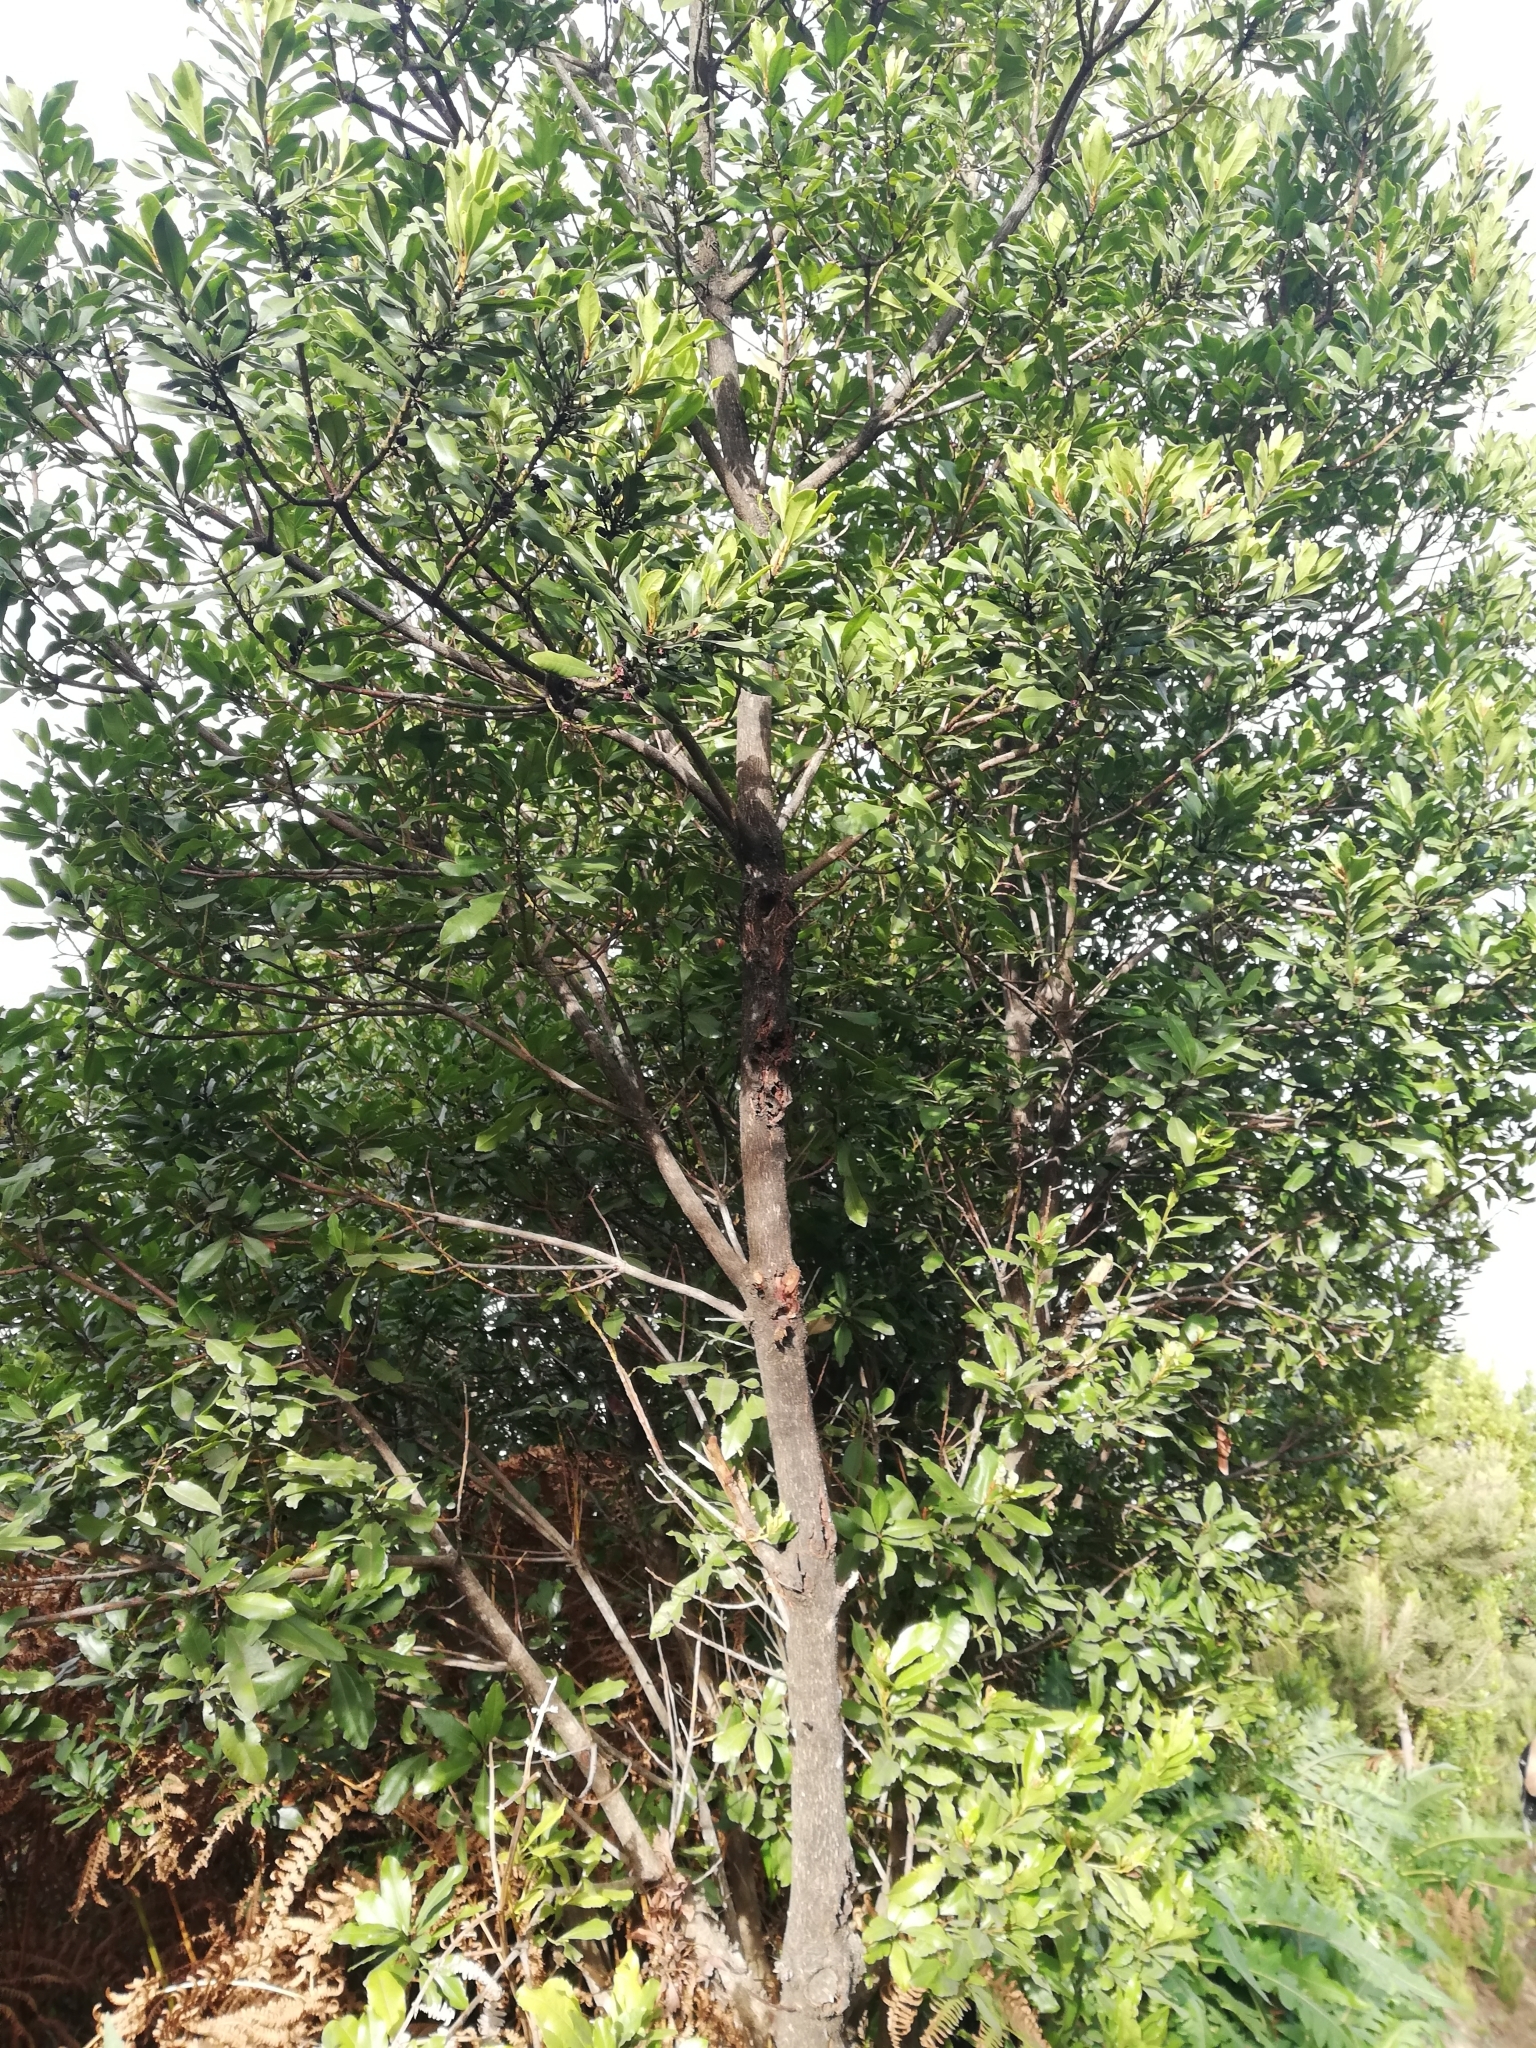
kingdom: Plantae
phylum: Tracheophyta
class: Magnoliopsida
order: Fagales
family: Myricaceae
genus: Morella
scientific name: Morella faya
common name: Firetree
